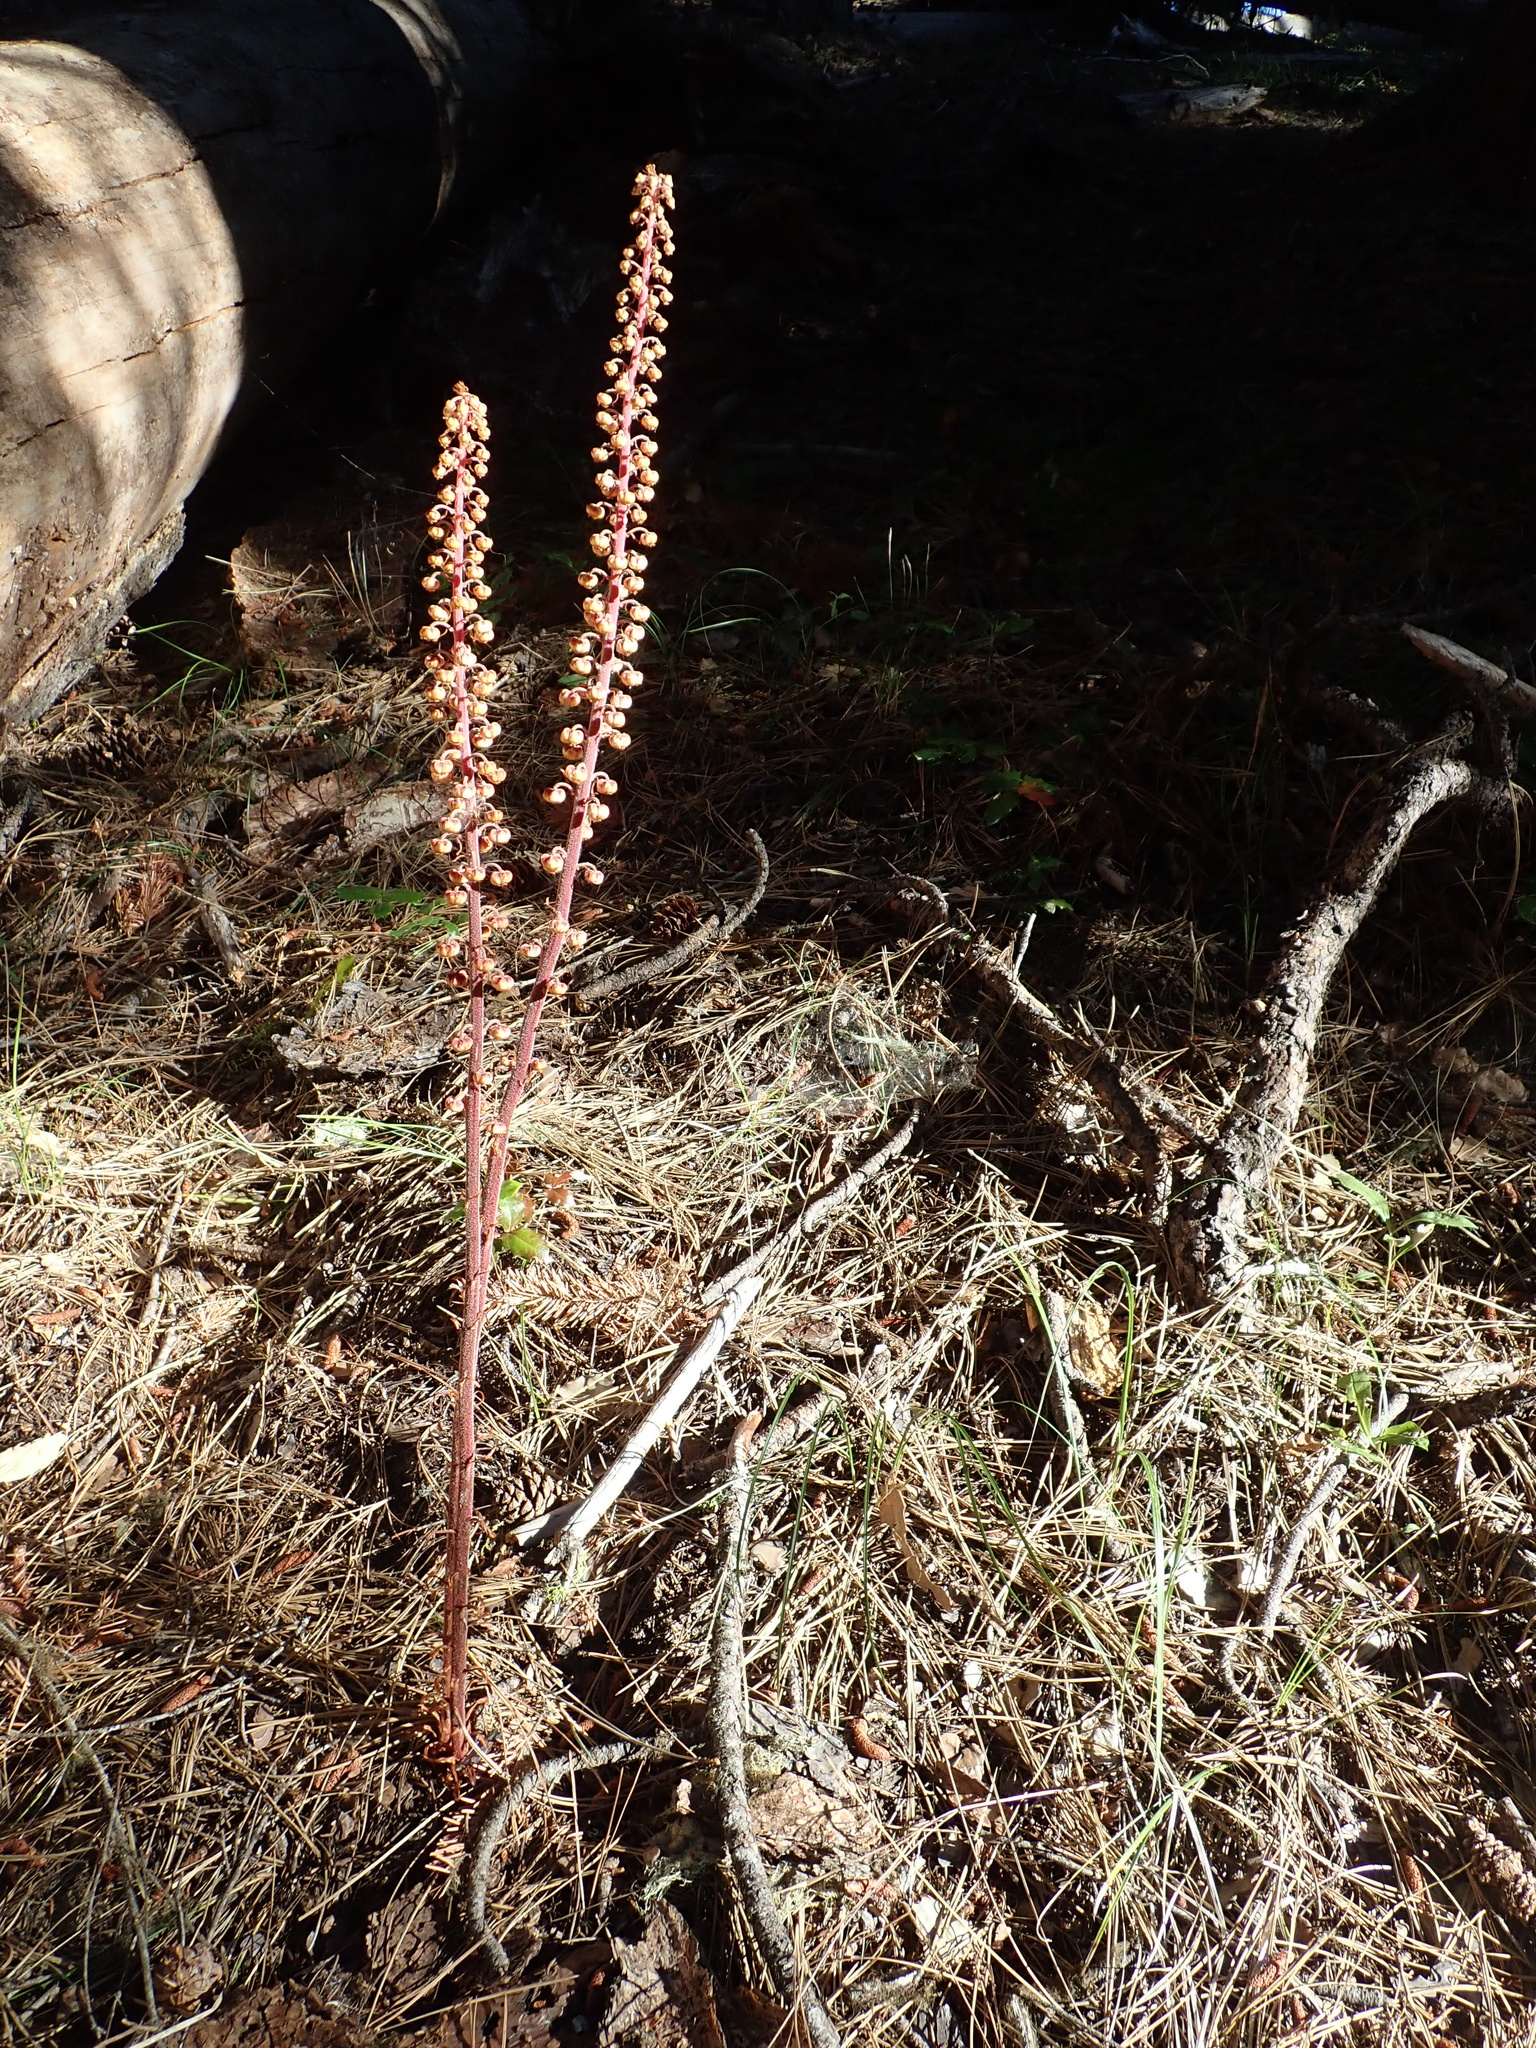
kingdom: Plantae
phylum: Tracheophyta
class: Magnoliopsida
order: Ericales
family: Ericaceae
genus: Pterospora
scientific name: Pterospora andromedea
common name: Giant bird's-nest
